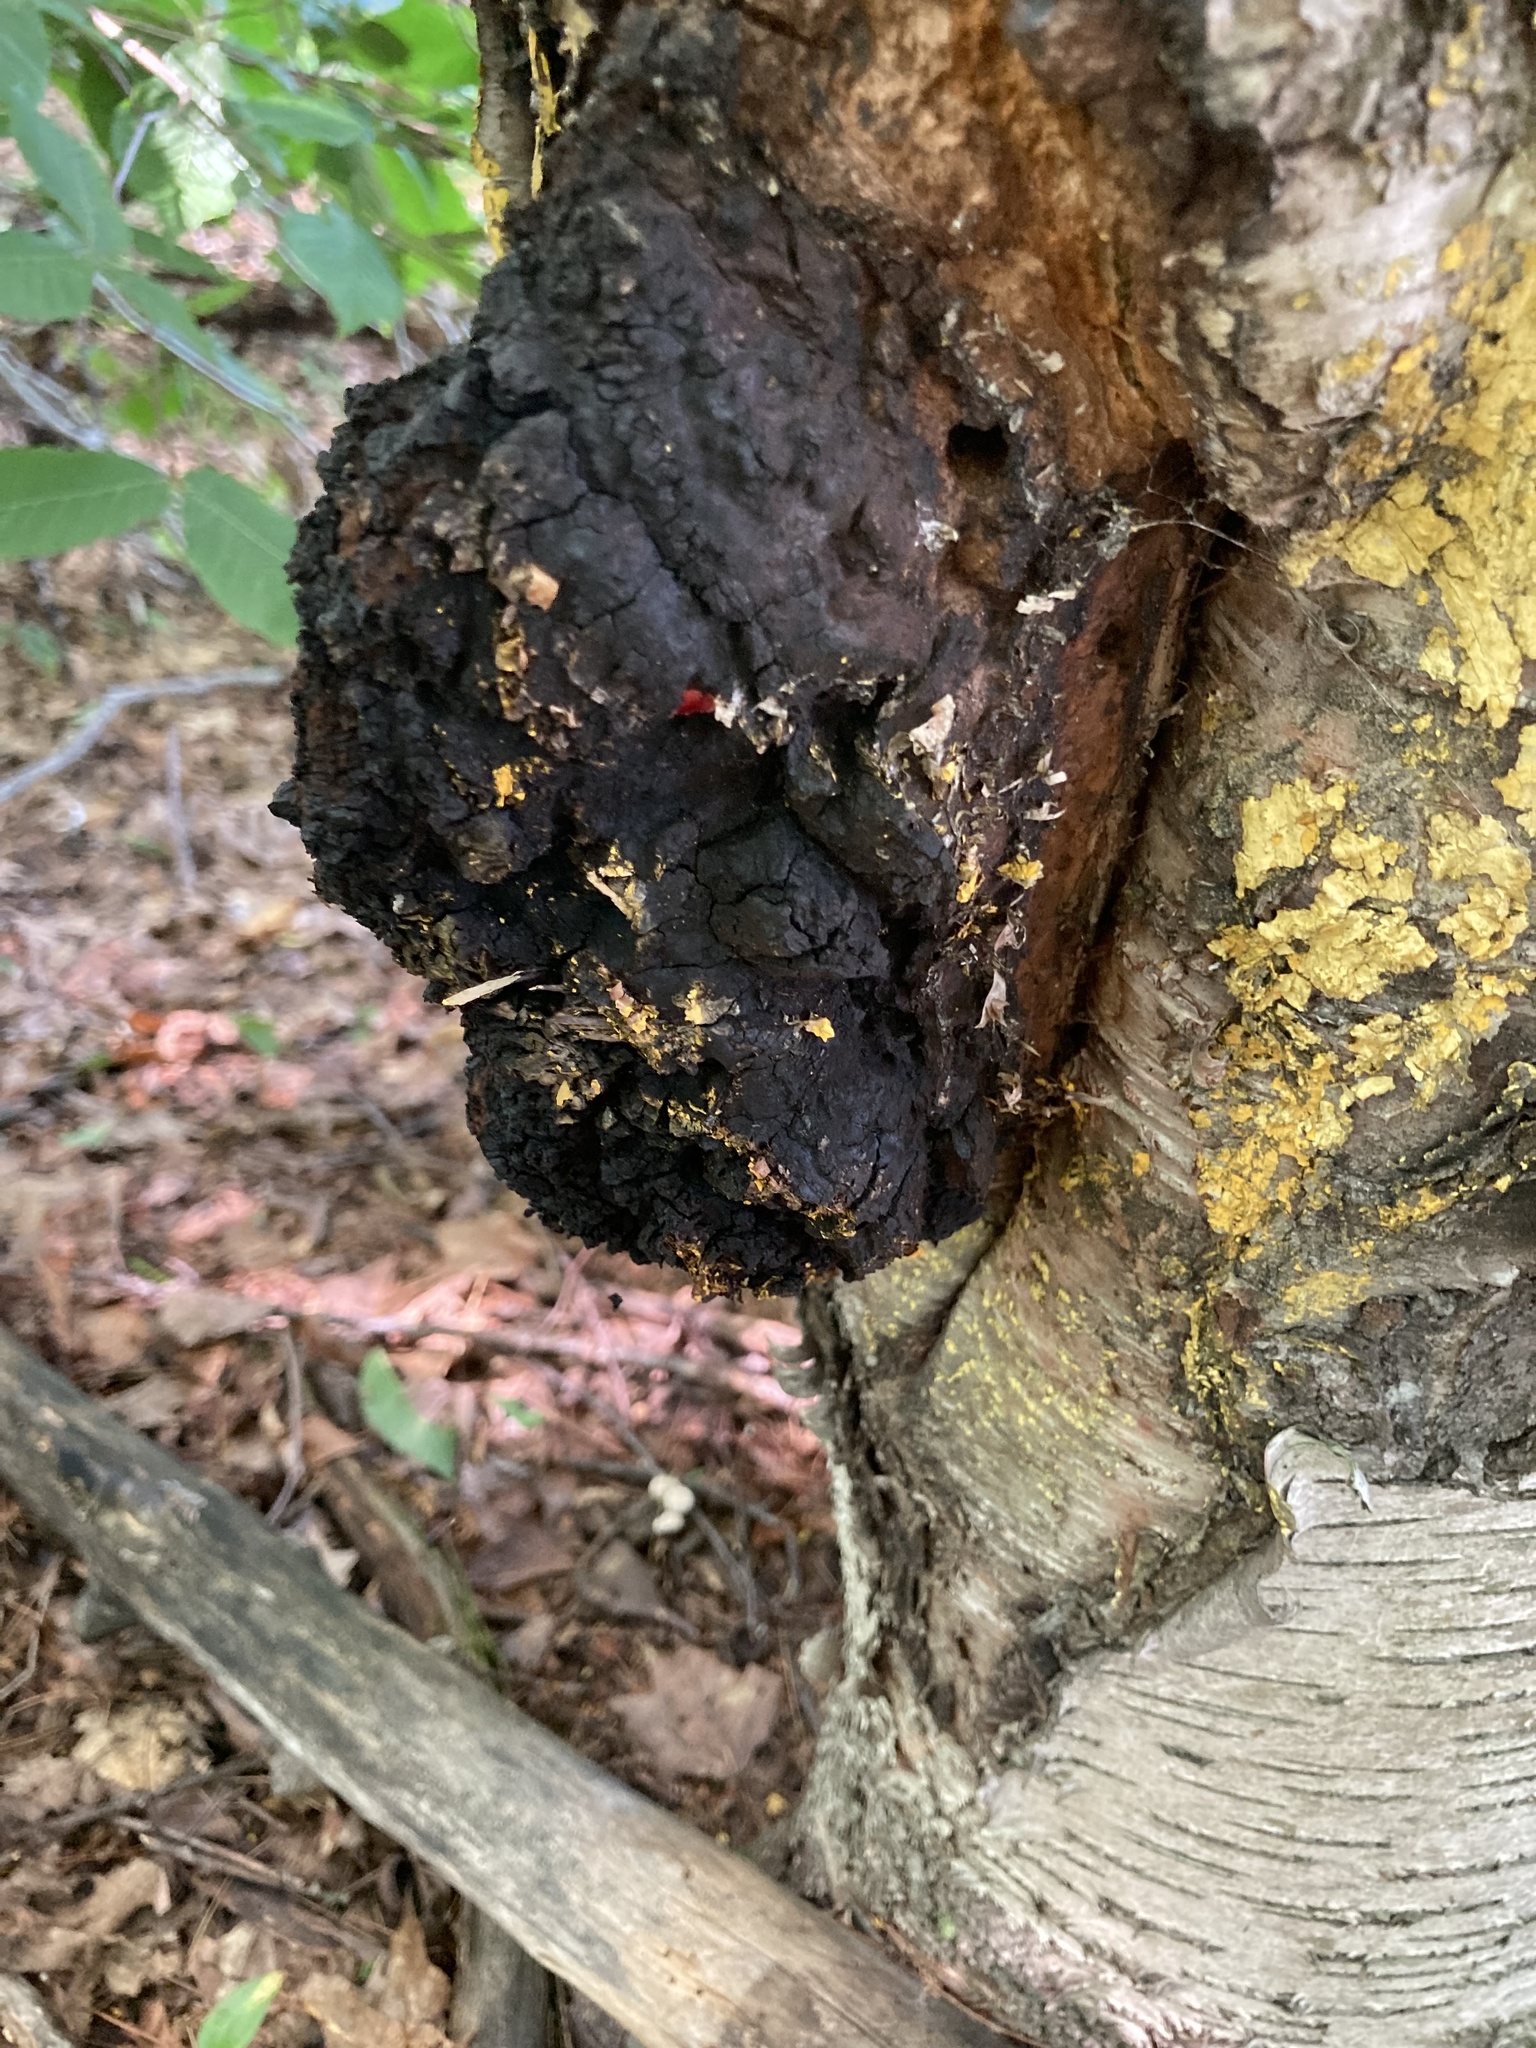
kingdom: Fungi
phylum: Basidiomycota
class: Agaricomycetes
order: Hymenochaetales
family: Hymenochaetaceae
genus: Inonotus
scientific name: Inonotus obliquus
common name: Chaga
